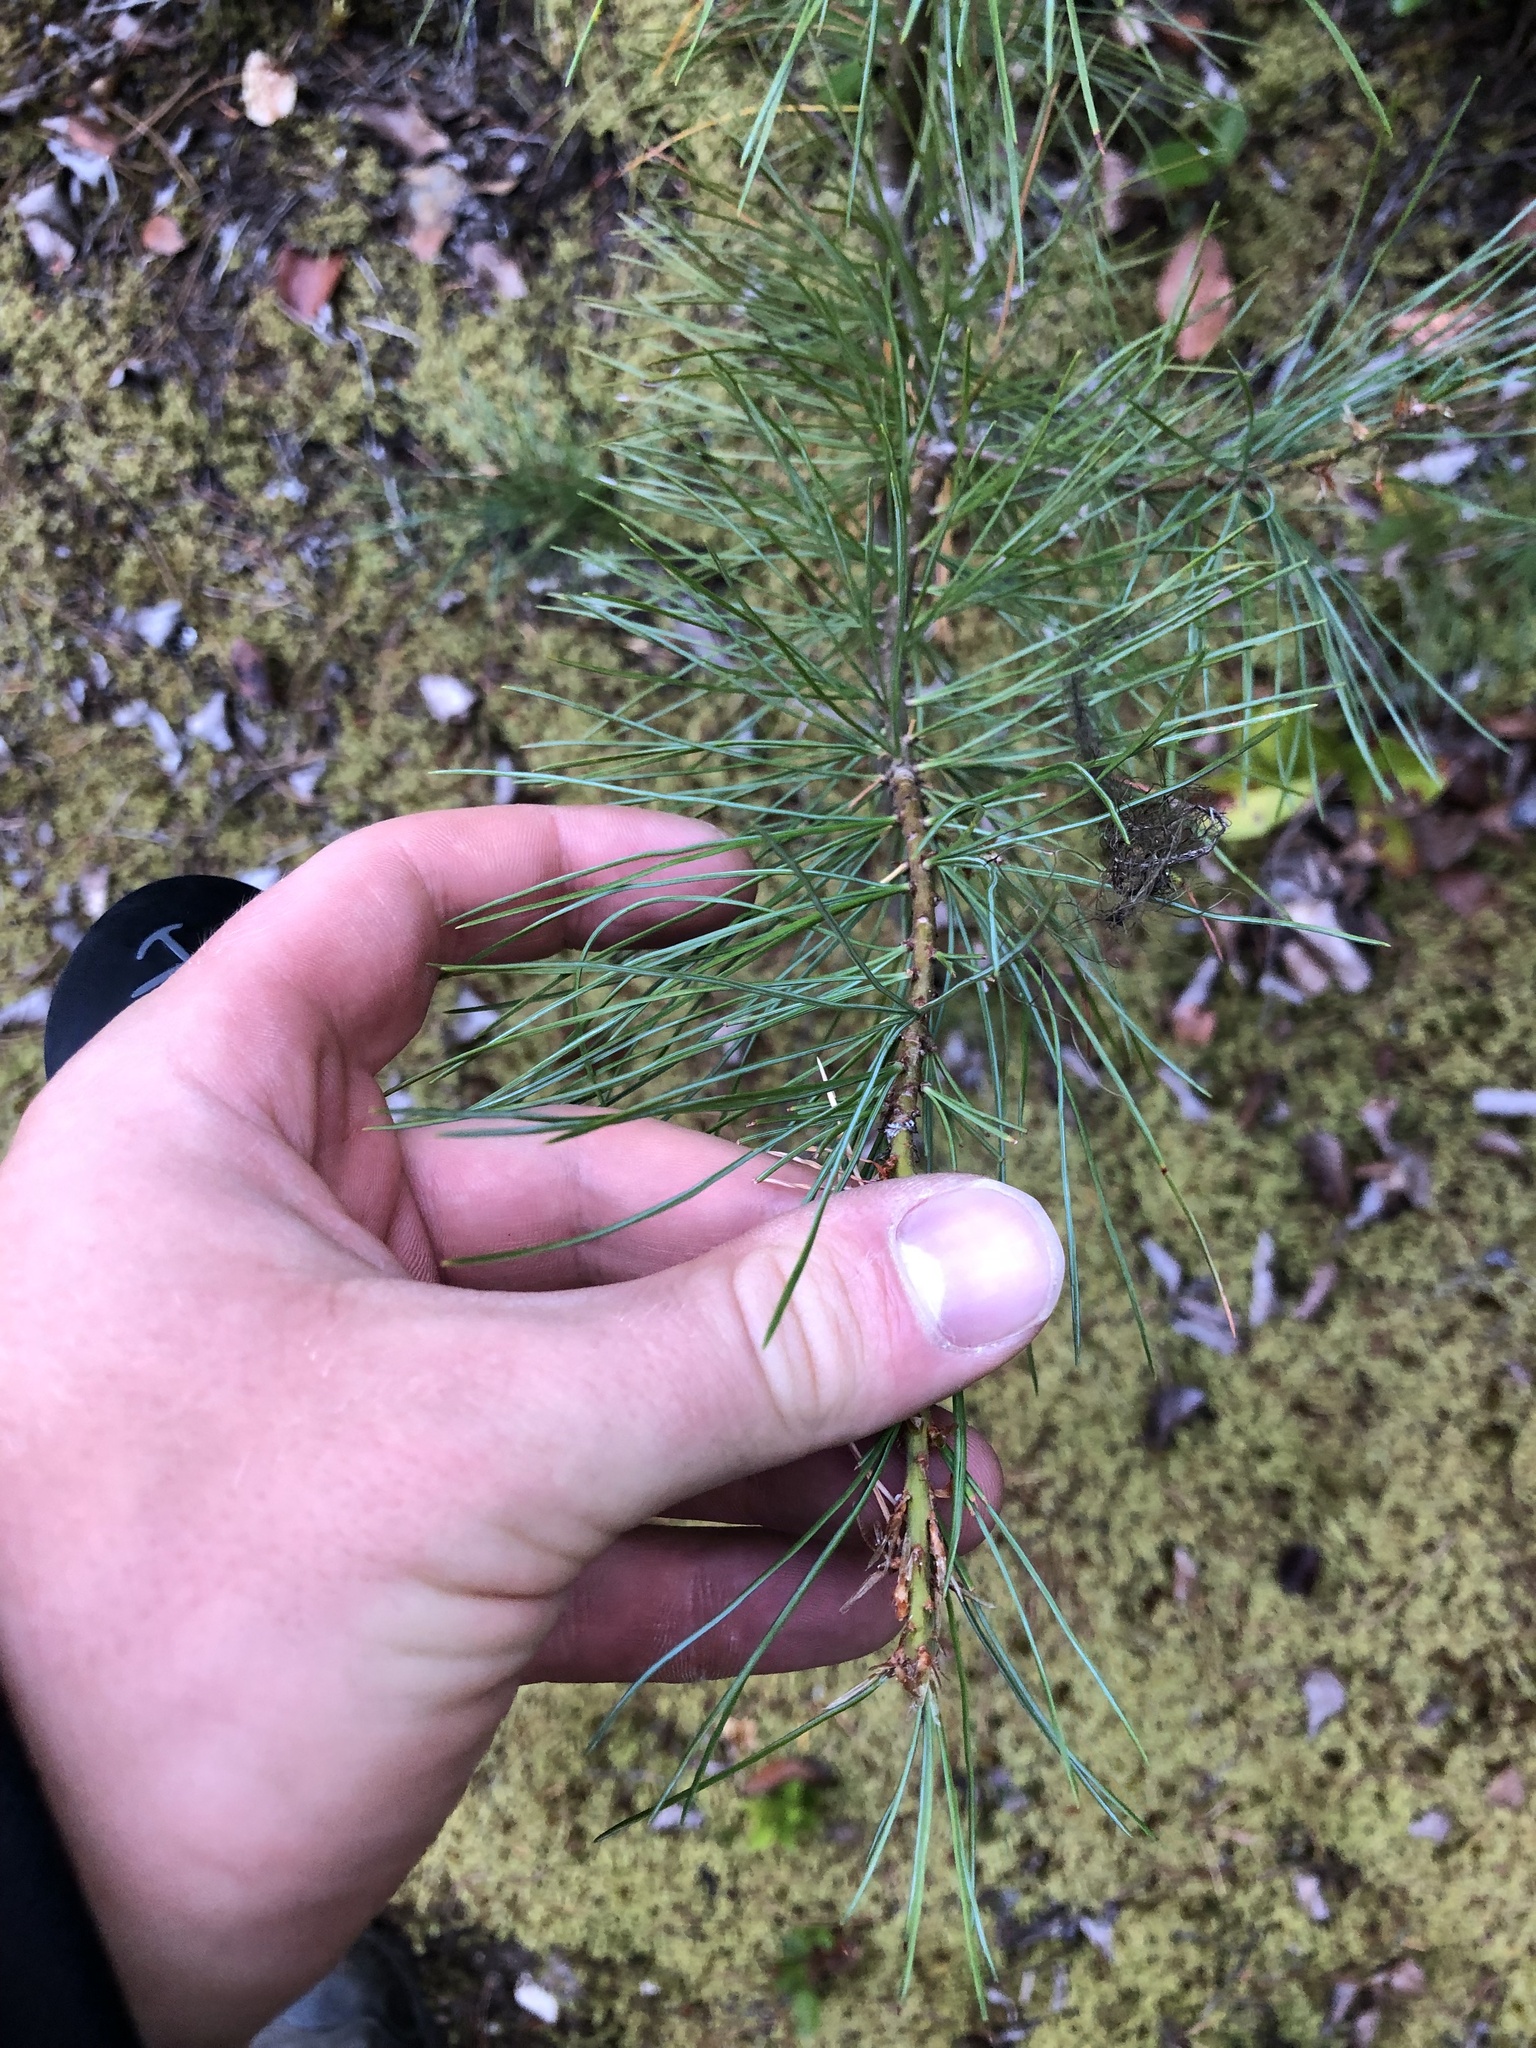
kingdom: Plantae
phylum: Tracheophyta
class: Pinopsida
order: Pinales
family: Pinaceae
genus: Pinus
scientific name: Pinus monticola
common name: Western white pine
